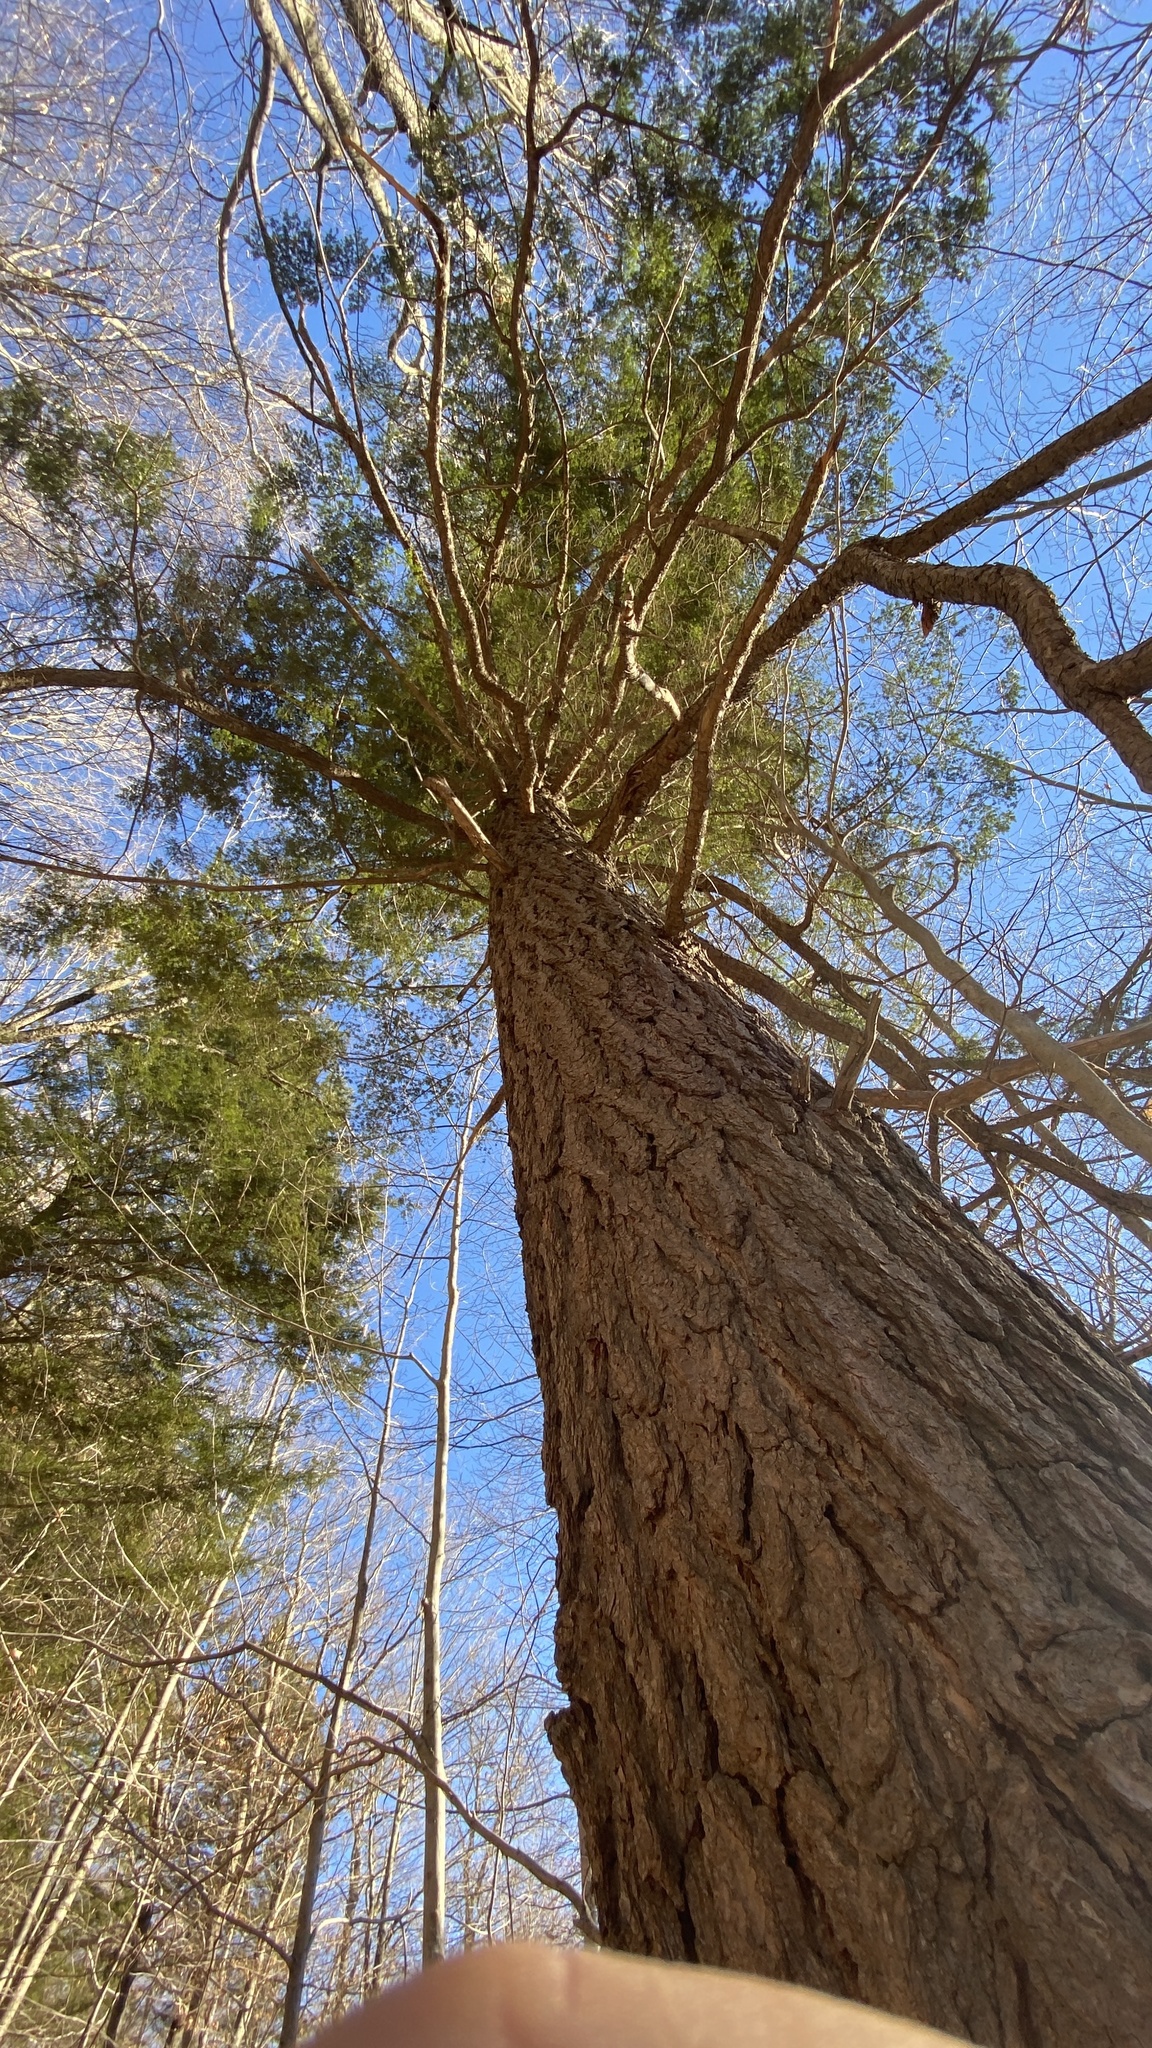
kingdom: Plantae
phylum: Tracheophyta
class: Pinopsida
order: Pinales
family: Pinaceae
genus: Tsuga
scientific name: Tsuga canadensis
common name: Eastern hemlock
